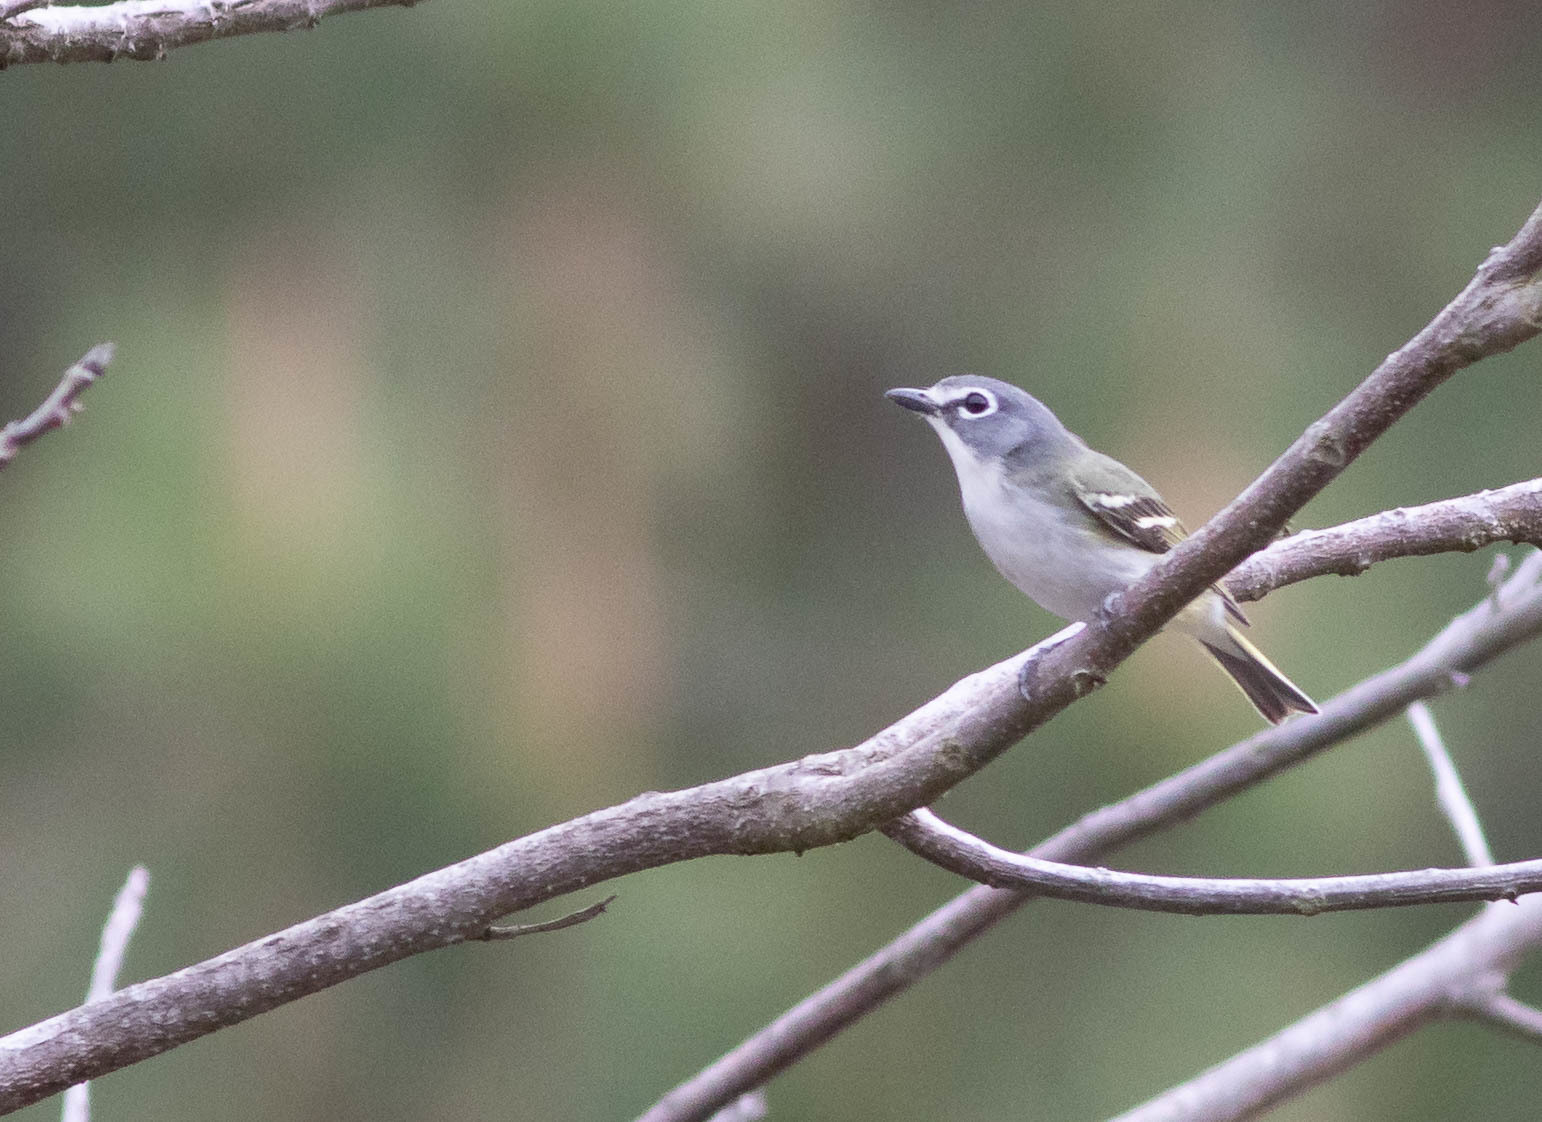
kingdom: Animalia
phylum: Chordata
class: Aves
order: Passeriformes
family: Vireonidae
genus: Vireo
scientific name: Vireo solitarius
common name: Blue-headed vireo
